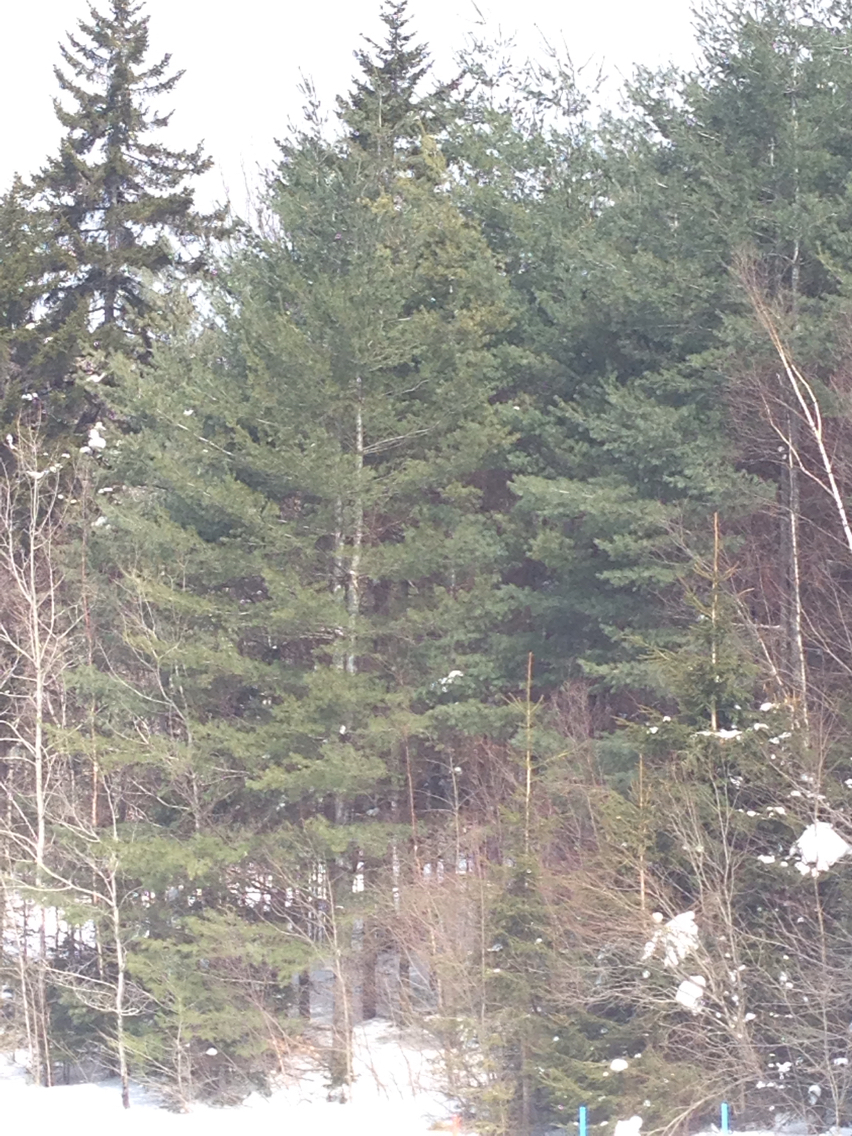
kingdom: Plantae
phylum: Tracheophyta
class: Pinopsida
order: Pinales
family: Pinaceae
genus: Pinus
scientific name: Pinus strobus
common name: Weymouth pine
